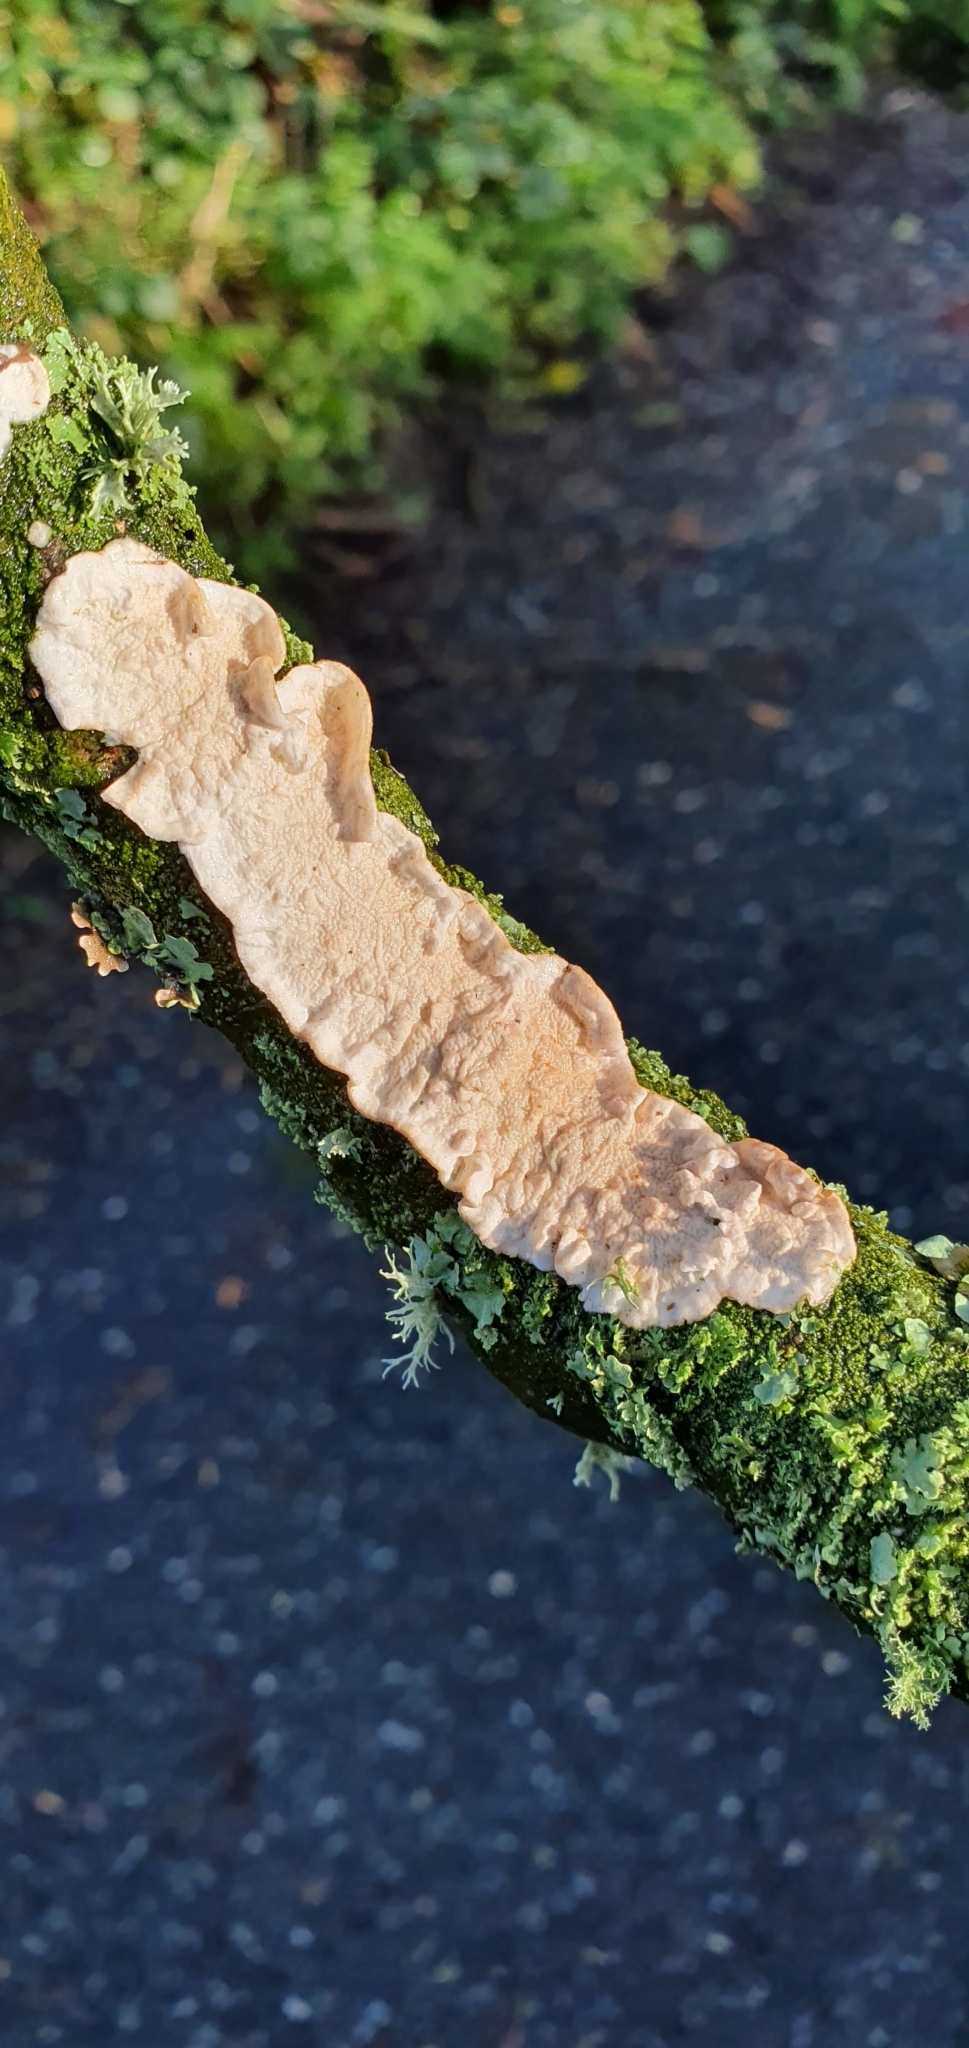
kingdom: Fungi
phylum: Basidiomycota
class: Agaricomycetes
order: Polyporales
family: Irpicaceae
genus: Byssomerulius
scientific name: Byssomerulius corium
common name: Netted crust
